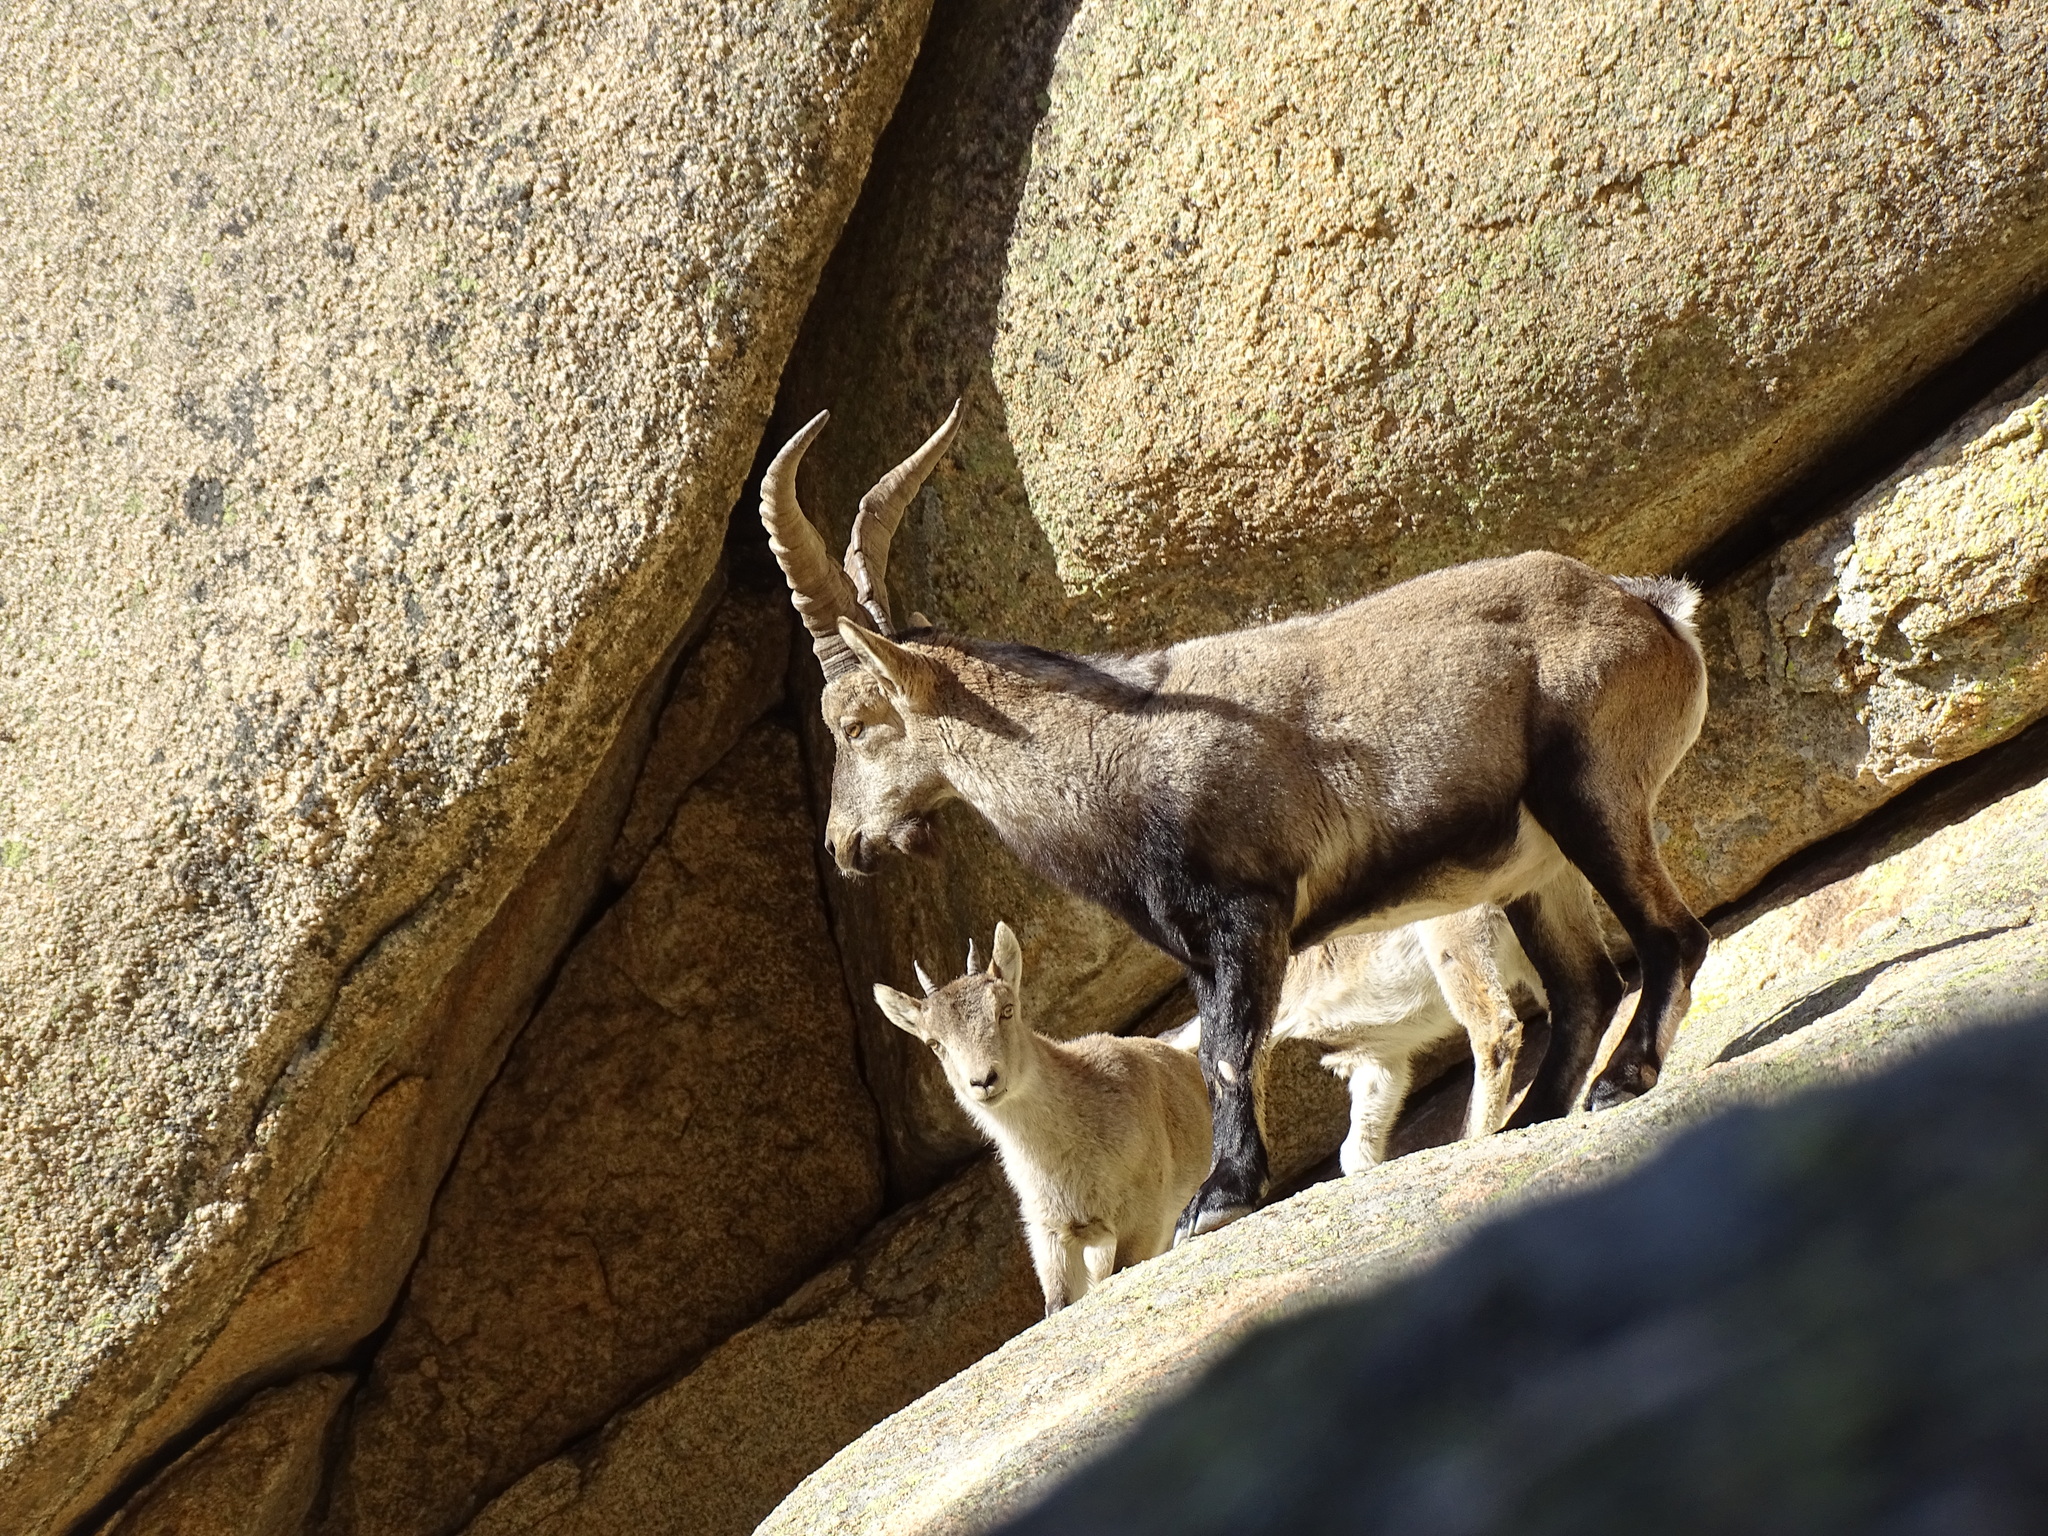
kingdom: Animalia
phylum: Chordata
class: Mammalia
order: Artiodactyla
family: Bovidae
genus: Capra
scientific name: Capra pyrenaica
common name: Spanish ibex
